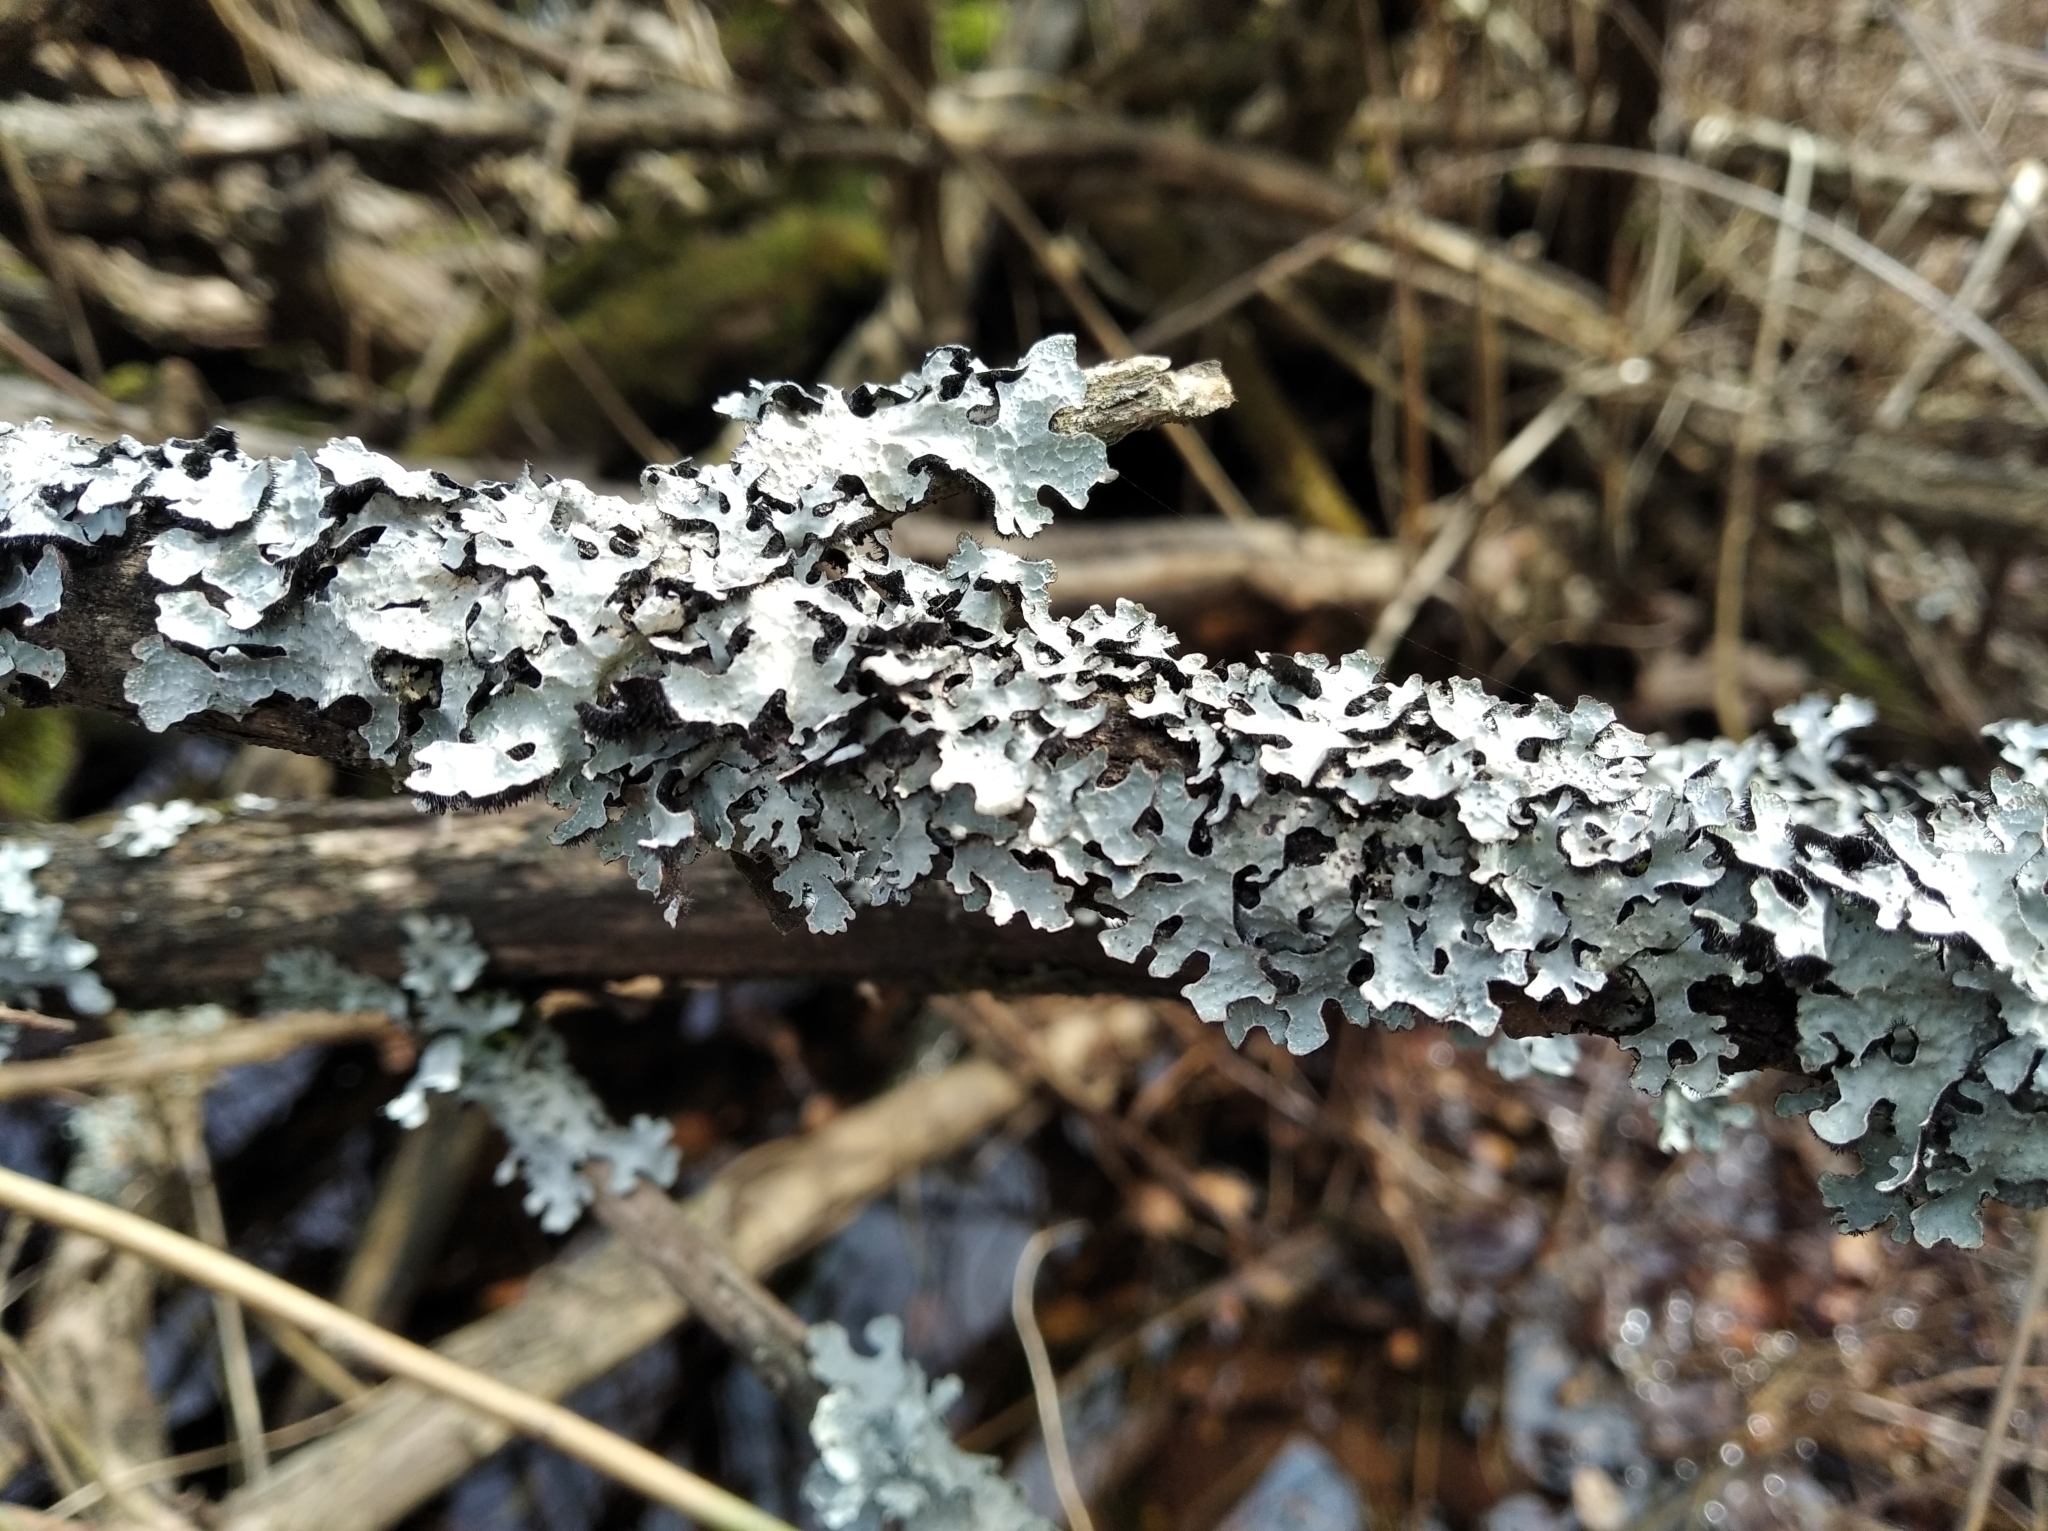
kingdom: Fungi
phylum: Ascomycota
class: Lecanoromycetes
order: Lecanorales
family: Parmeliaceae
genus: Parmelia
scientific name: Parmelia sulcata
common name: Netted shield lichen
